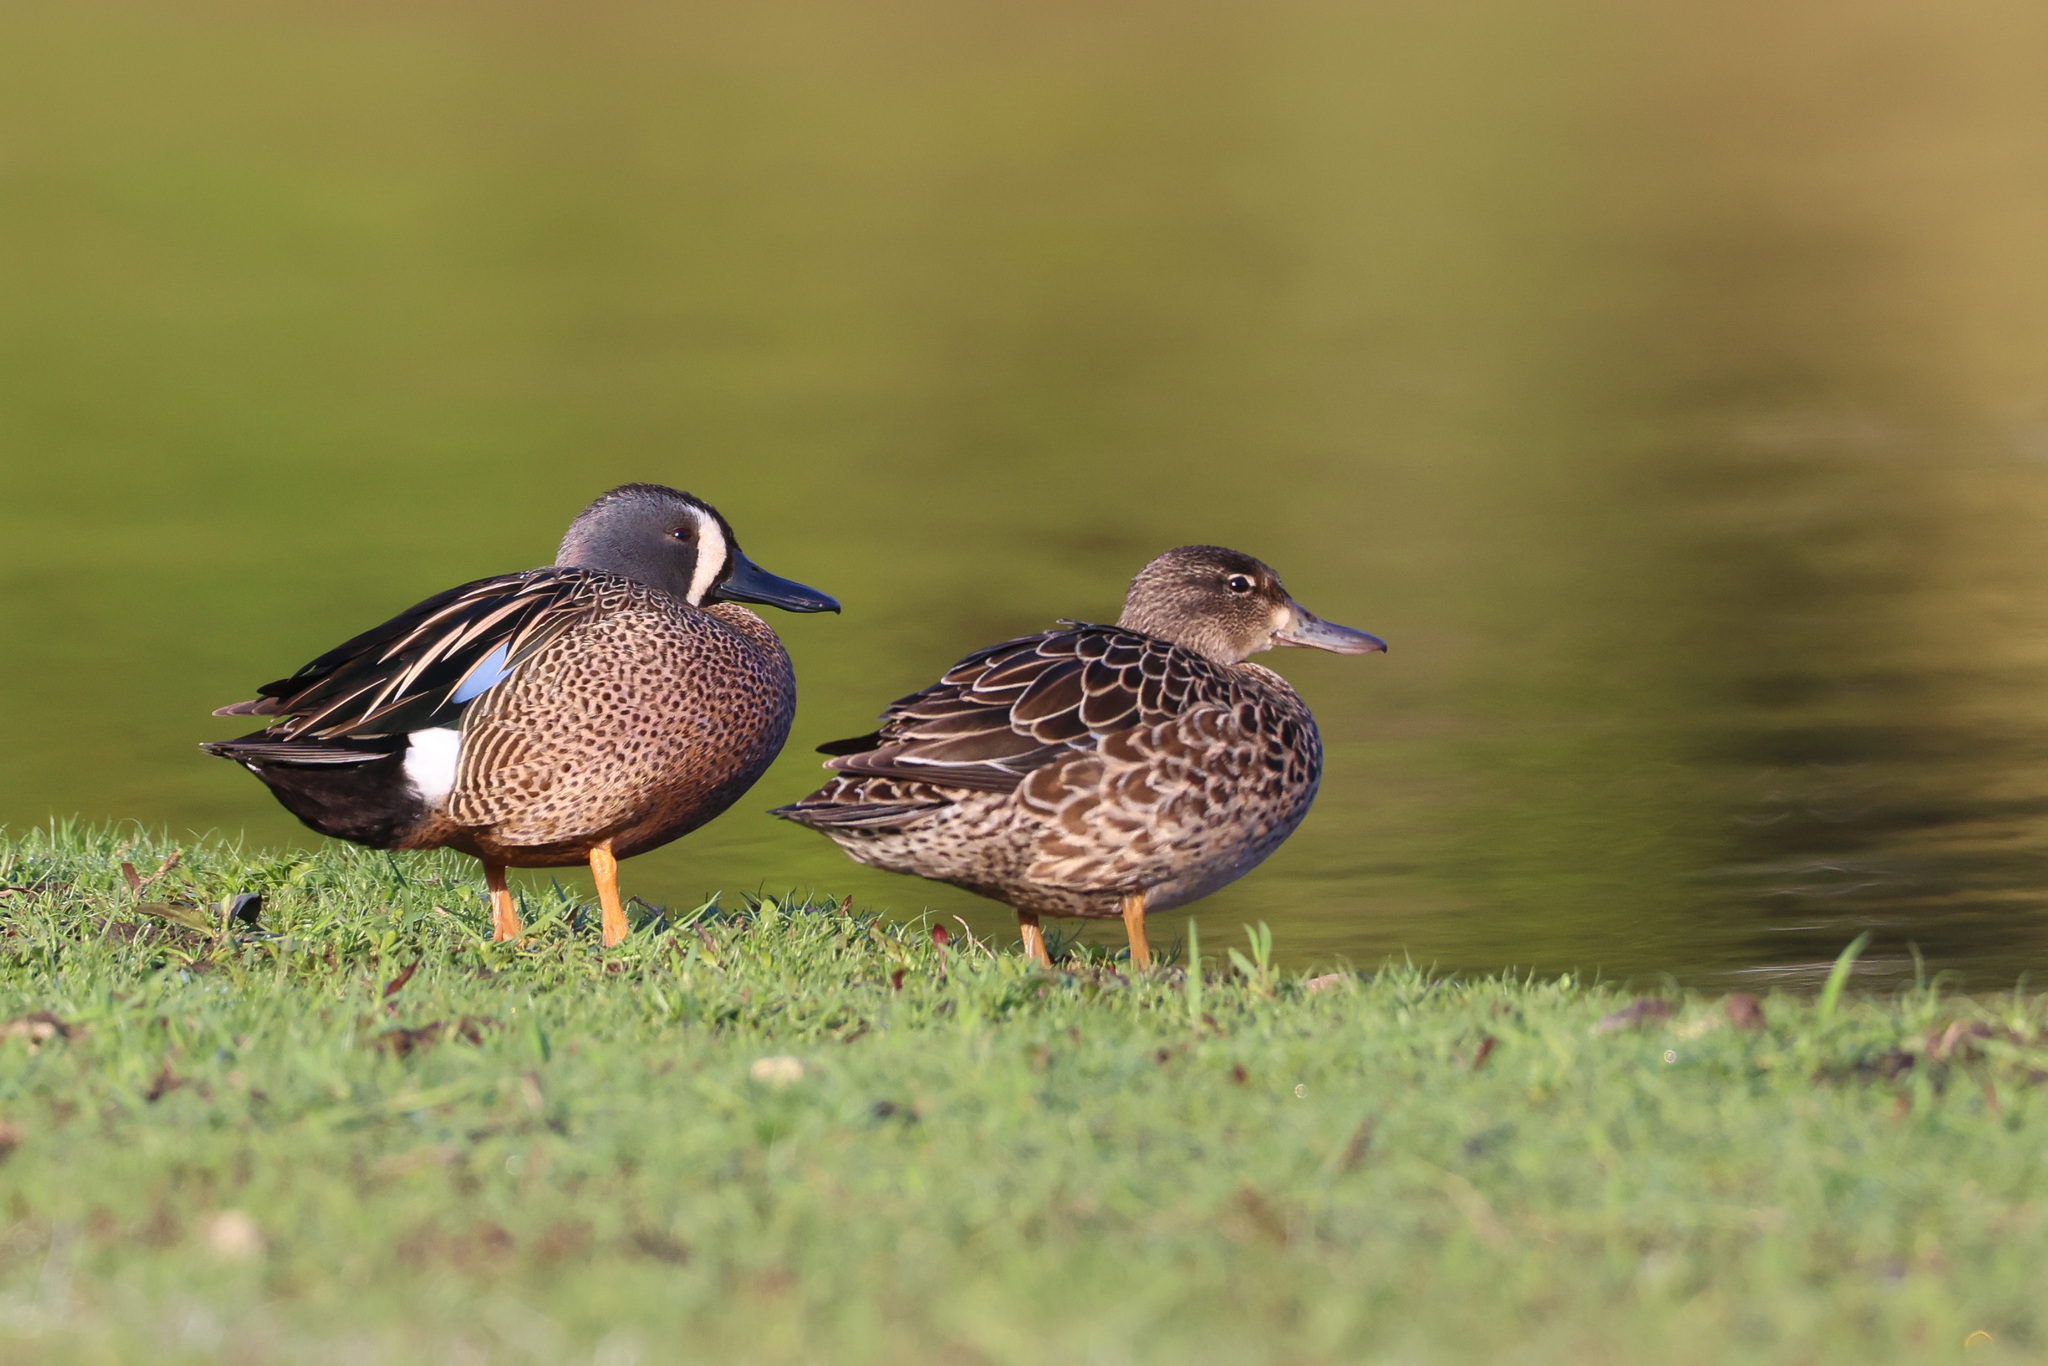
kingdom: Animalia
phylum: Chordata
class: Aves
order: Anseriformes
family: Anatidae
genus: Spatula
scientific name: Spatula discors
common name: Blue-winged teal
